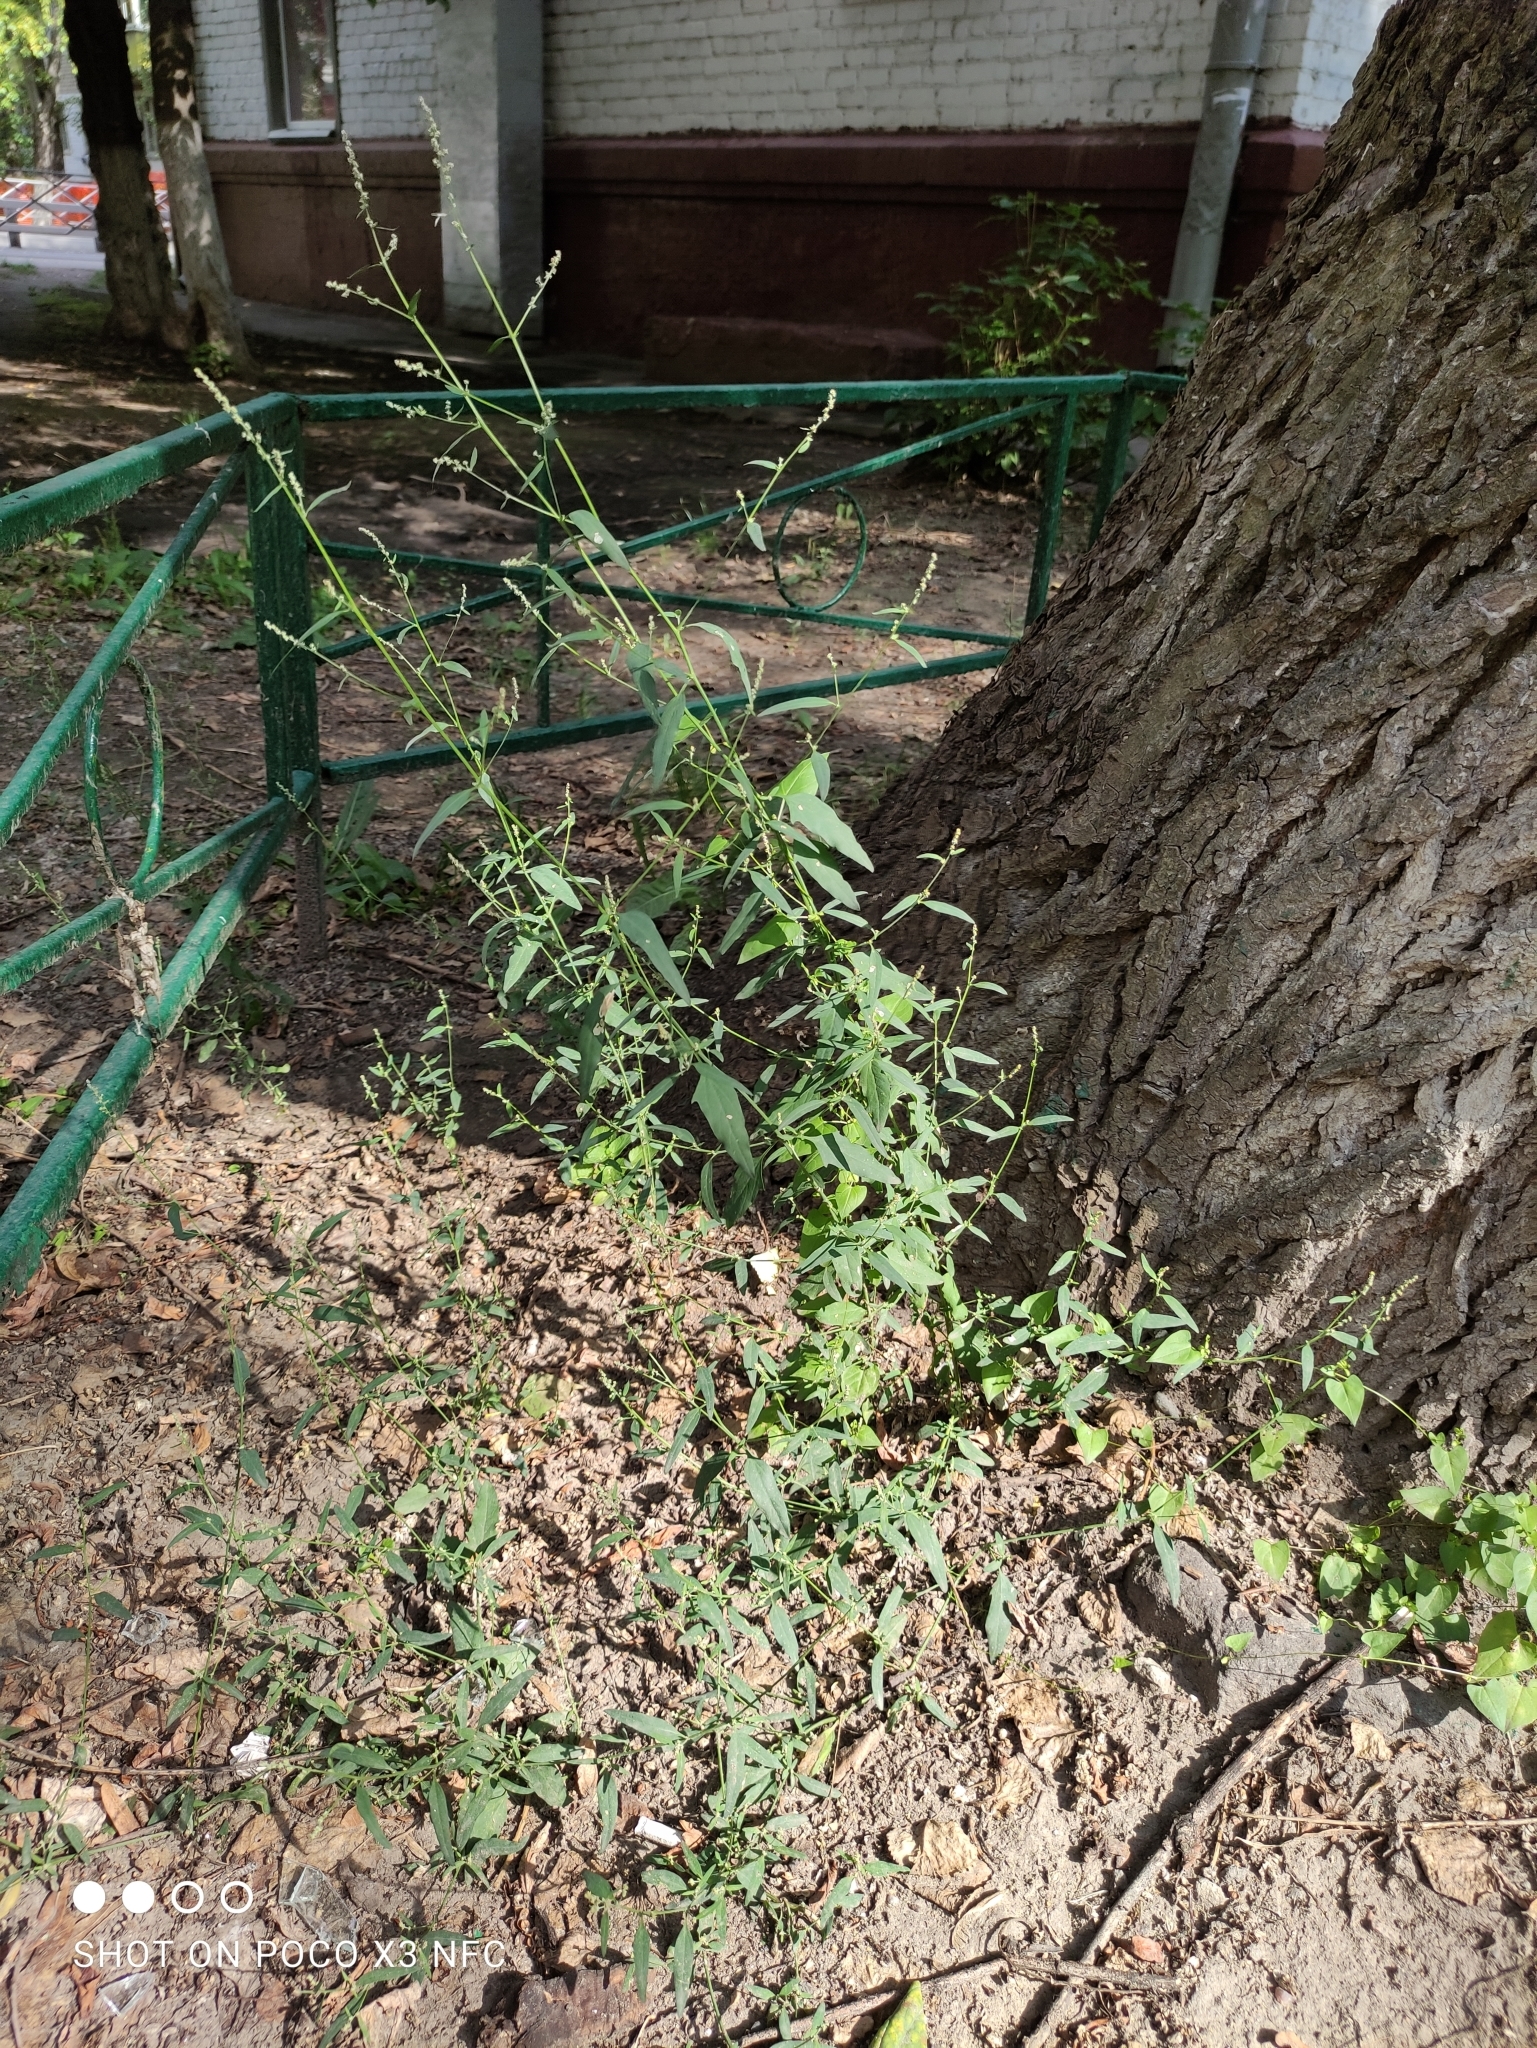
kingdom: Plantae
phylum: Tracheophyta
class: Magnoliopsida
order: Caryophyllales
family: Amaranthaceae
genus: Atriplex
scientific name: Atriplex patula
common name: Common orache
